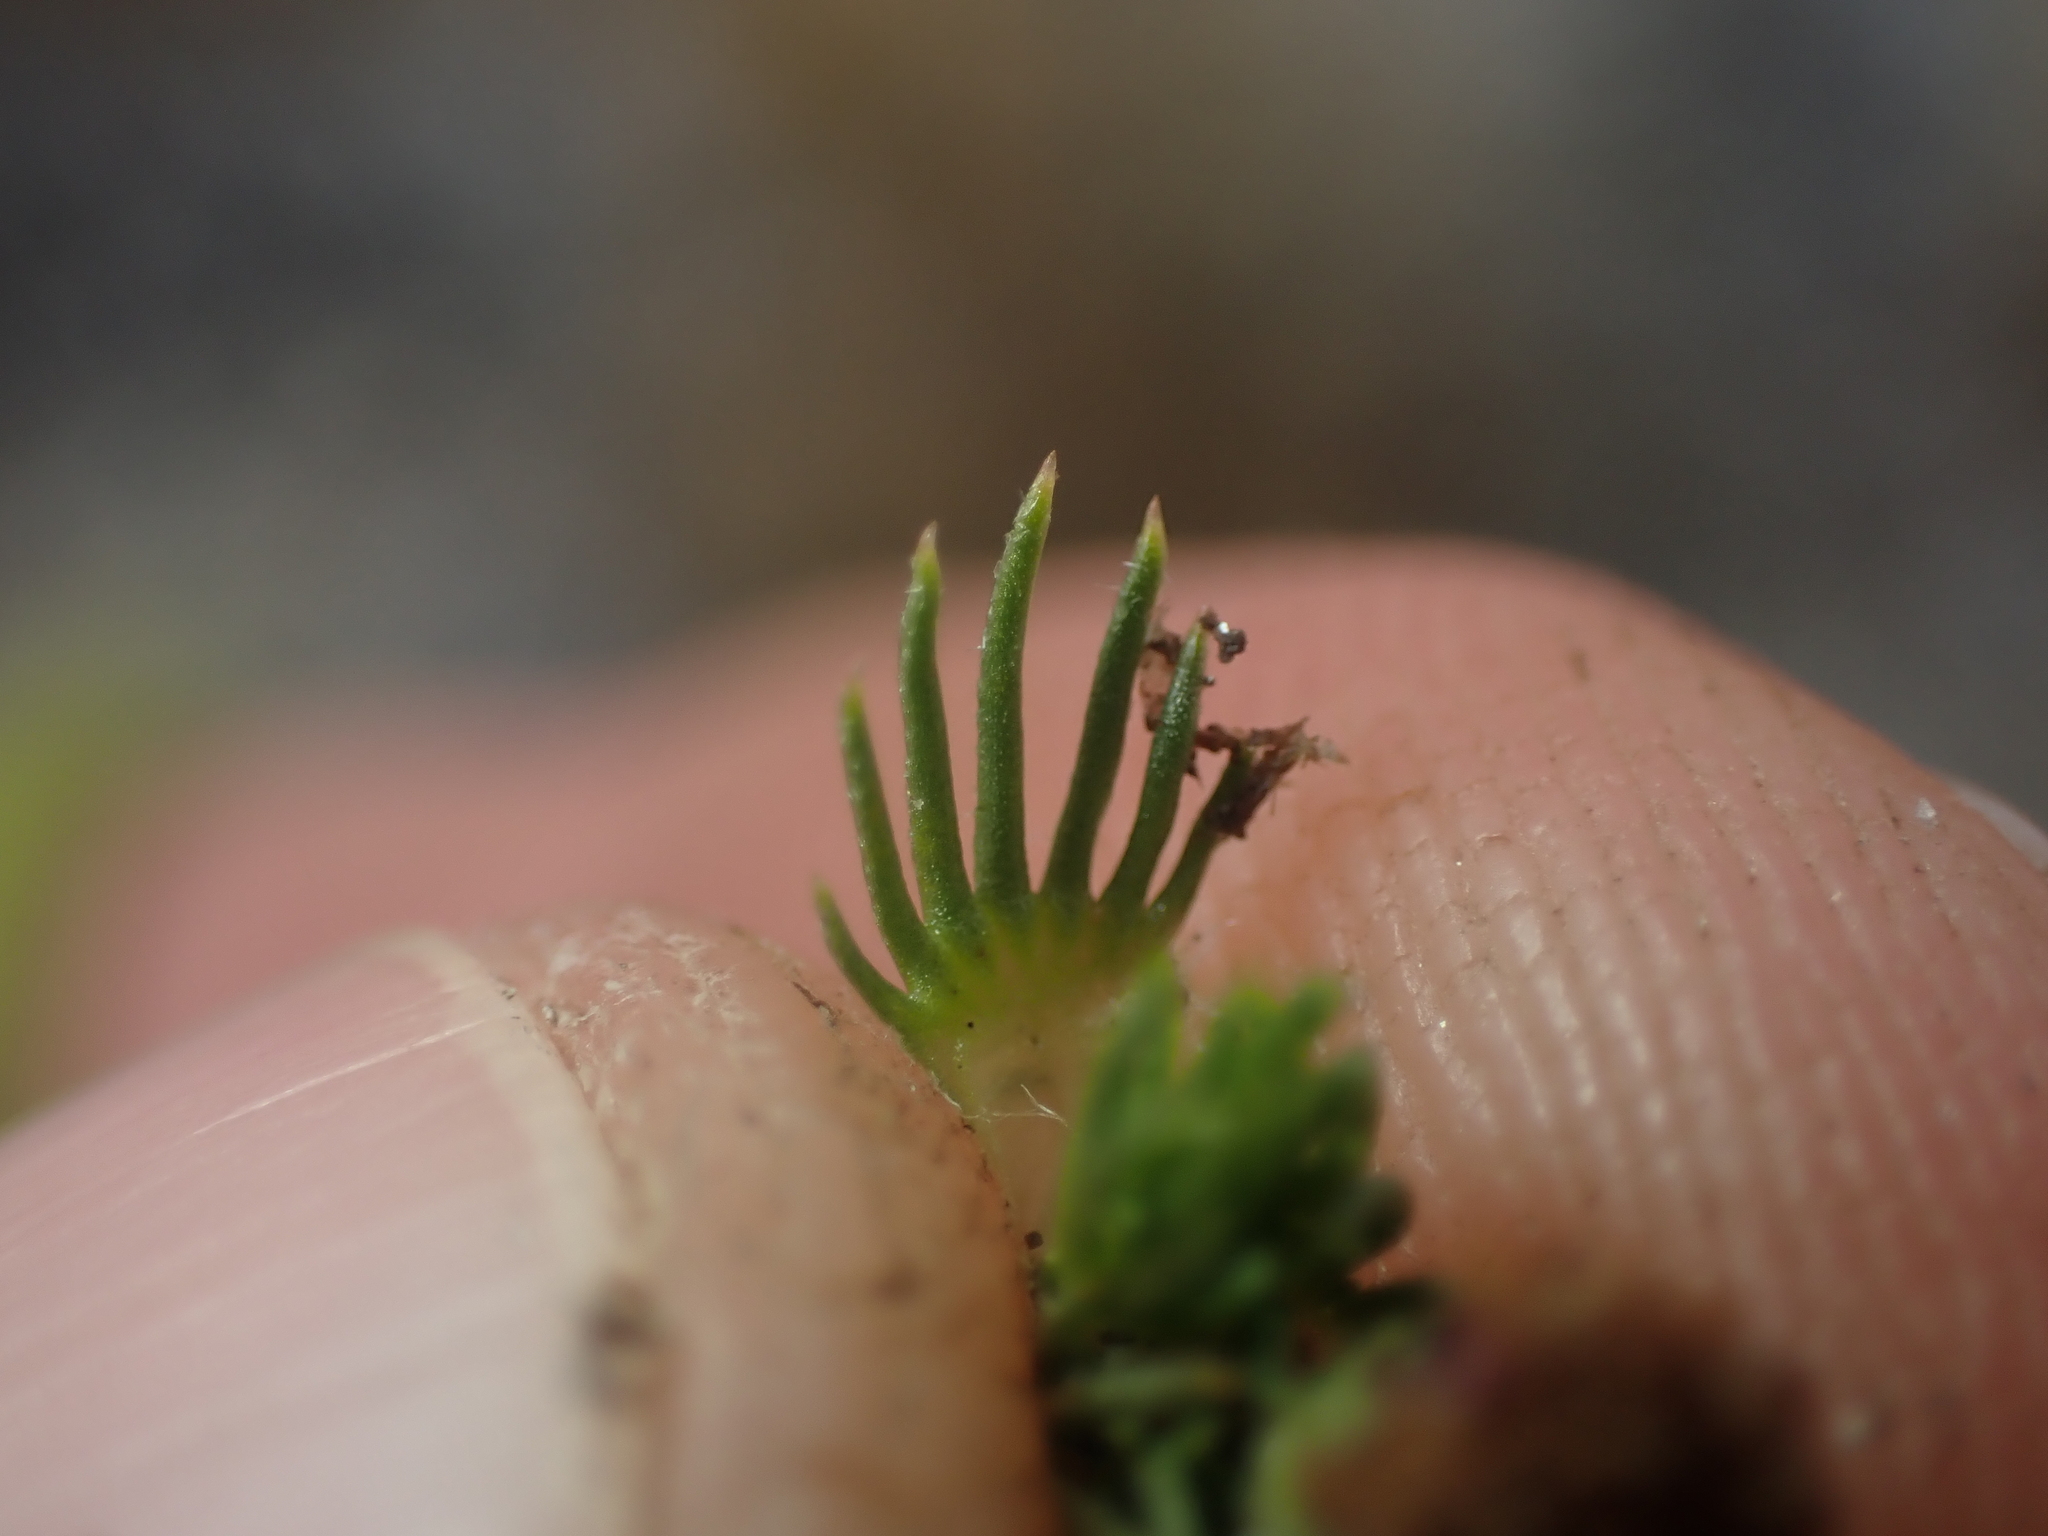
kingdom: Plantae
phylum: Tracheophyta
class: Magnoliopsida
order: Asterales
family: Asteraceae
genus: Leptinella
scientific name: Leptinella goyenii
